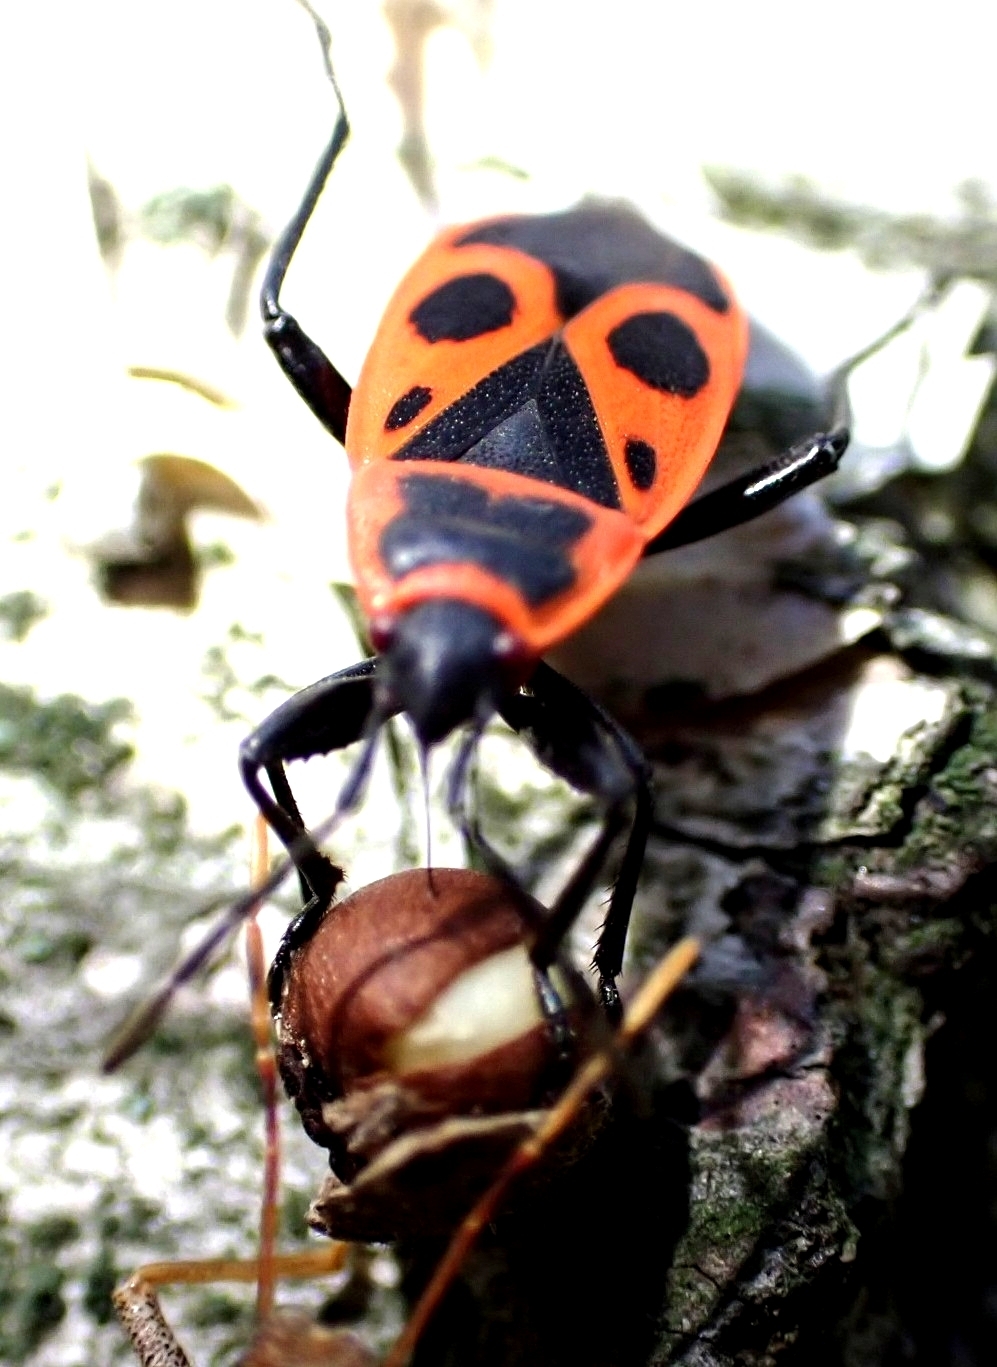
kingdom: Animalia
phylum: Arthropoda
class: Insecta
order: Hemiptera
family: Pyrrhocoridae
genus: Pyrrhocoris
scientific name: Pyrrhocoris apterus
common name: Firebug
